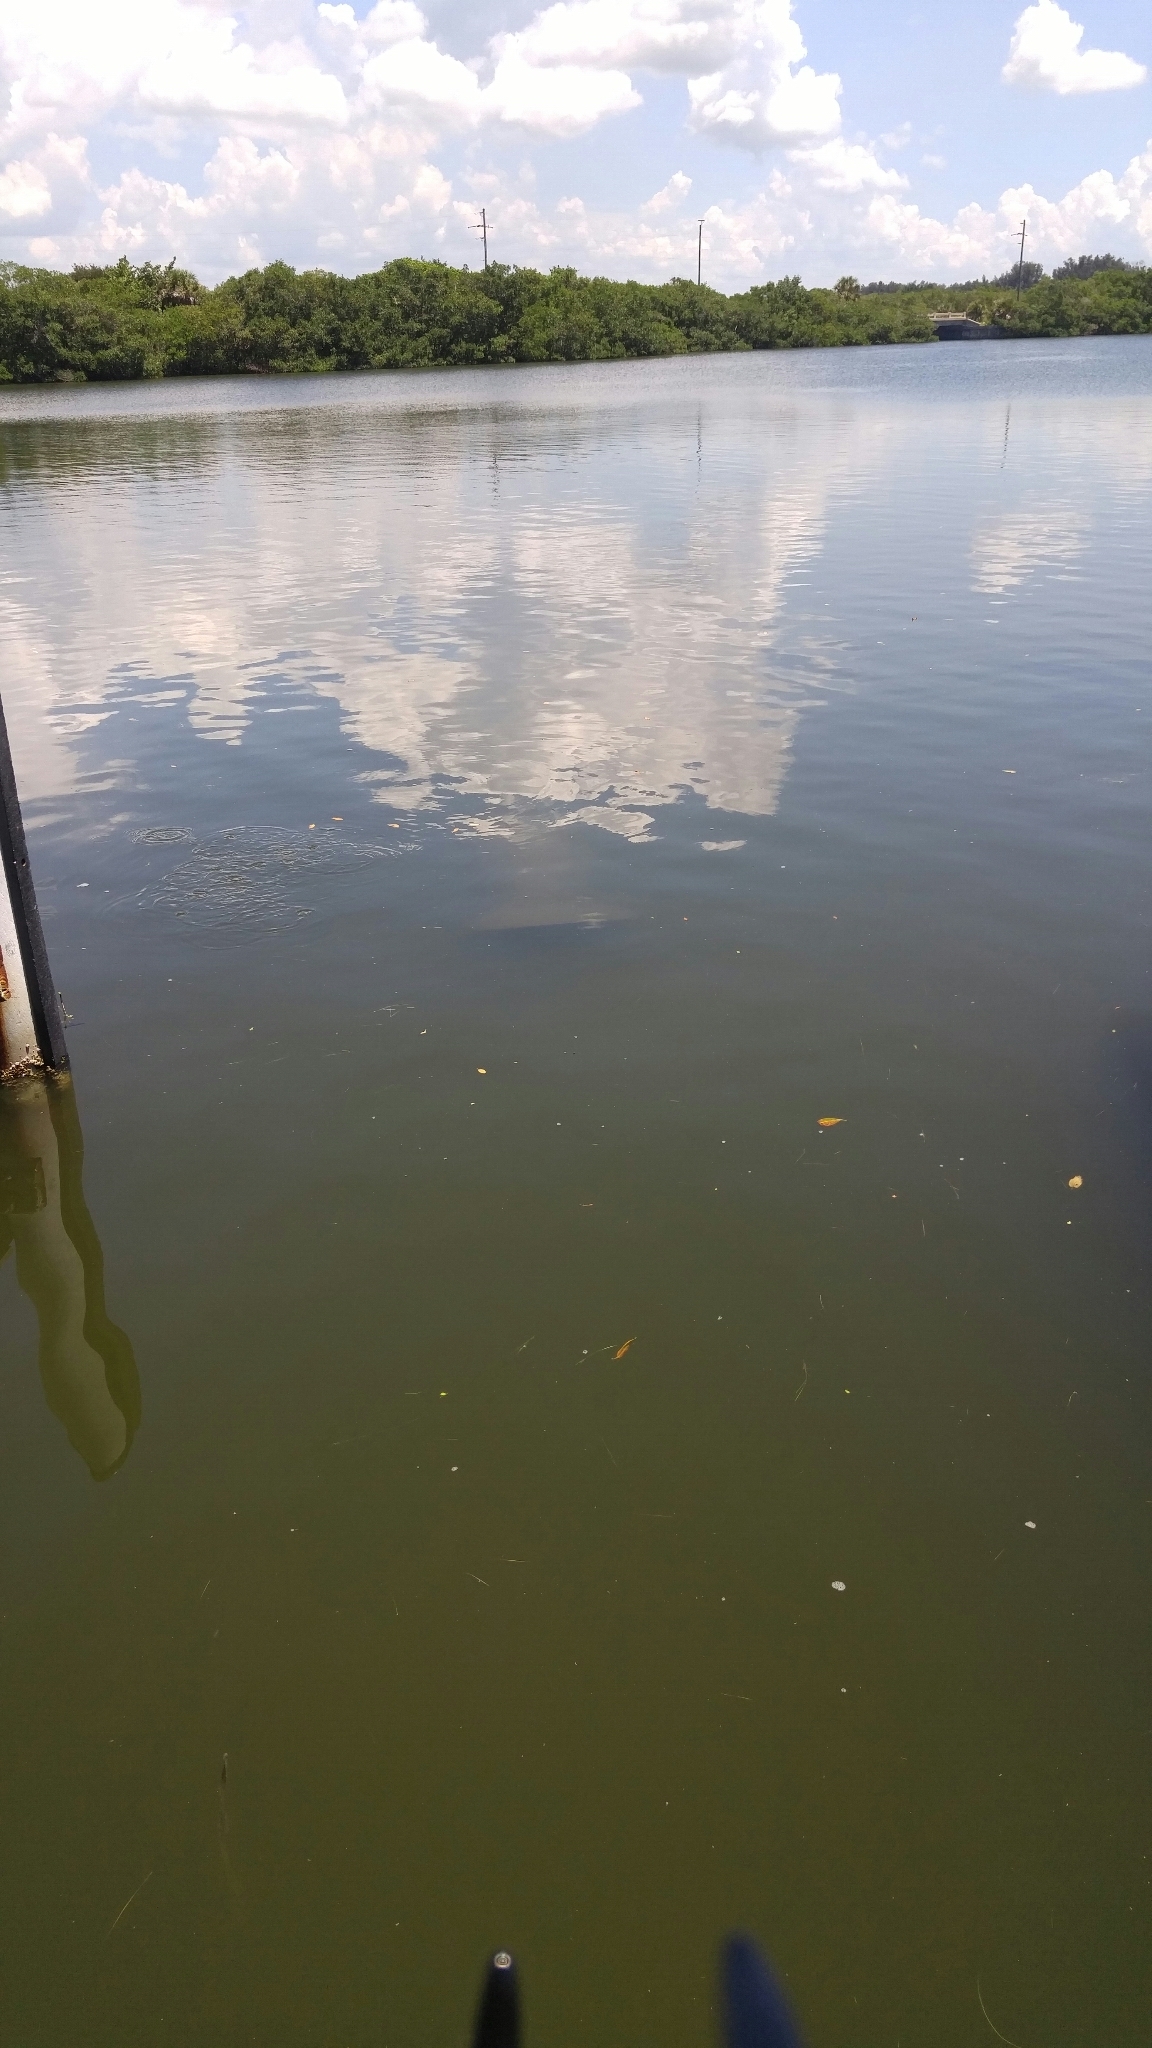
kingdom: Animalia
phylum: Chordata
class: Mammalia
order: Sirenia
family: Trichechidae
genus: Trichechus
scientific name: Trichechus manatus
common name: West indian manatee
